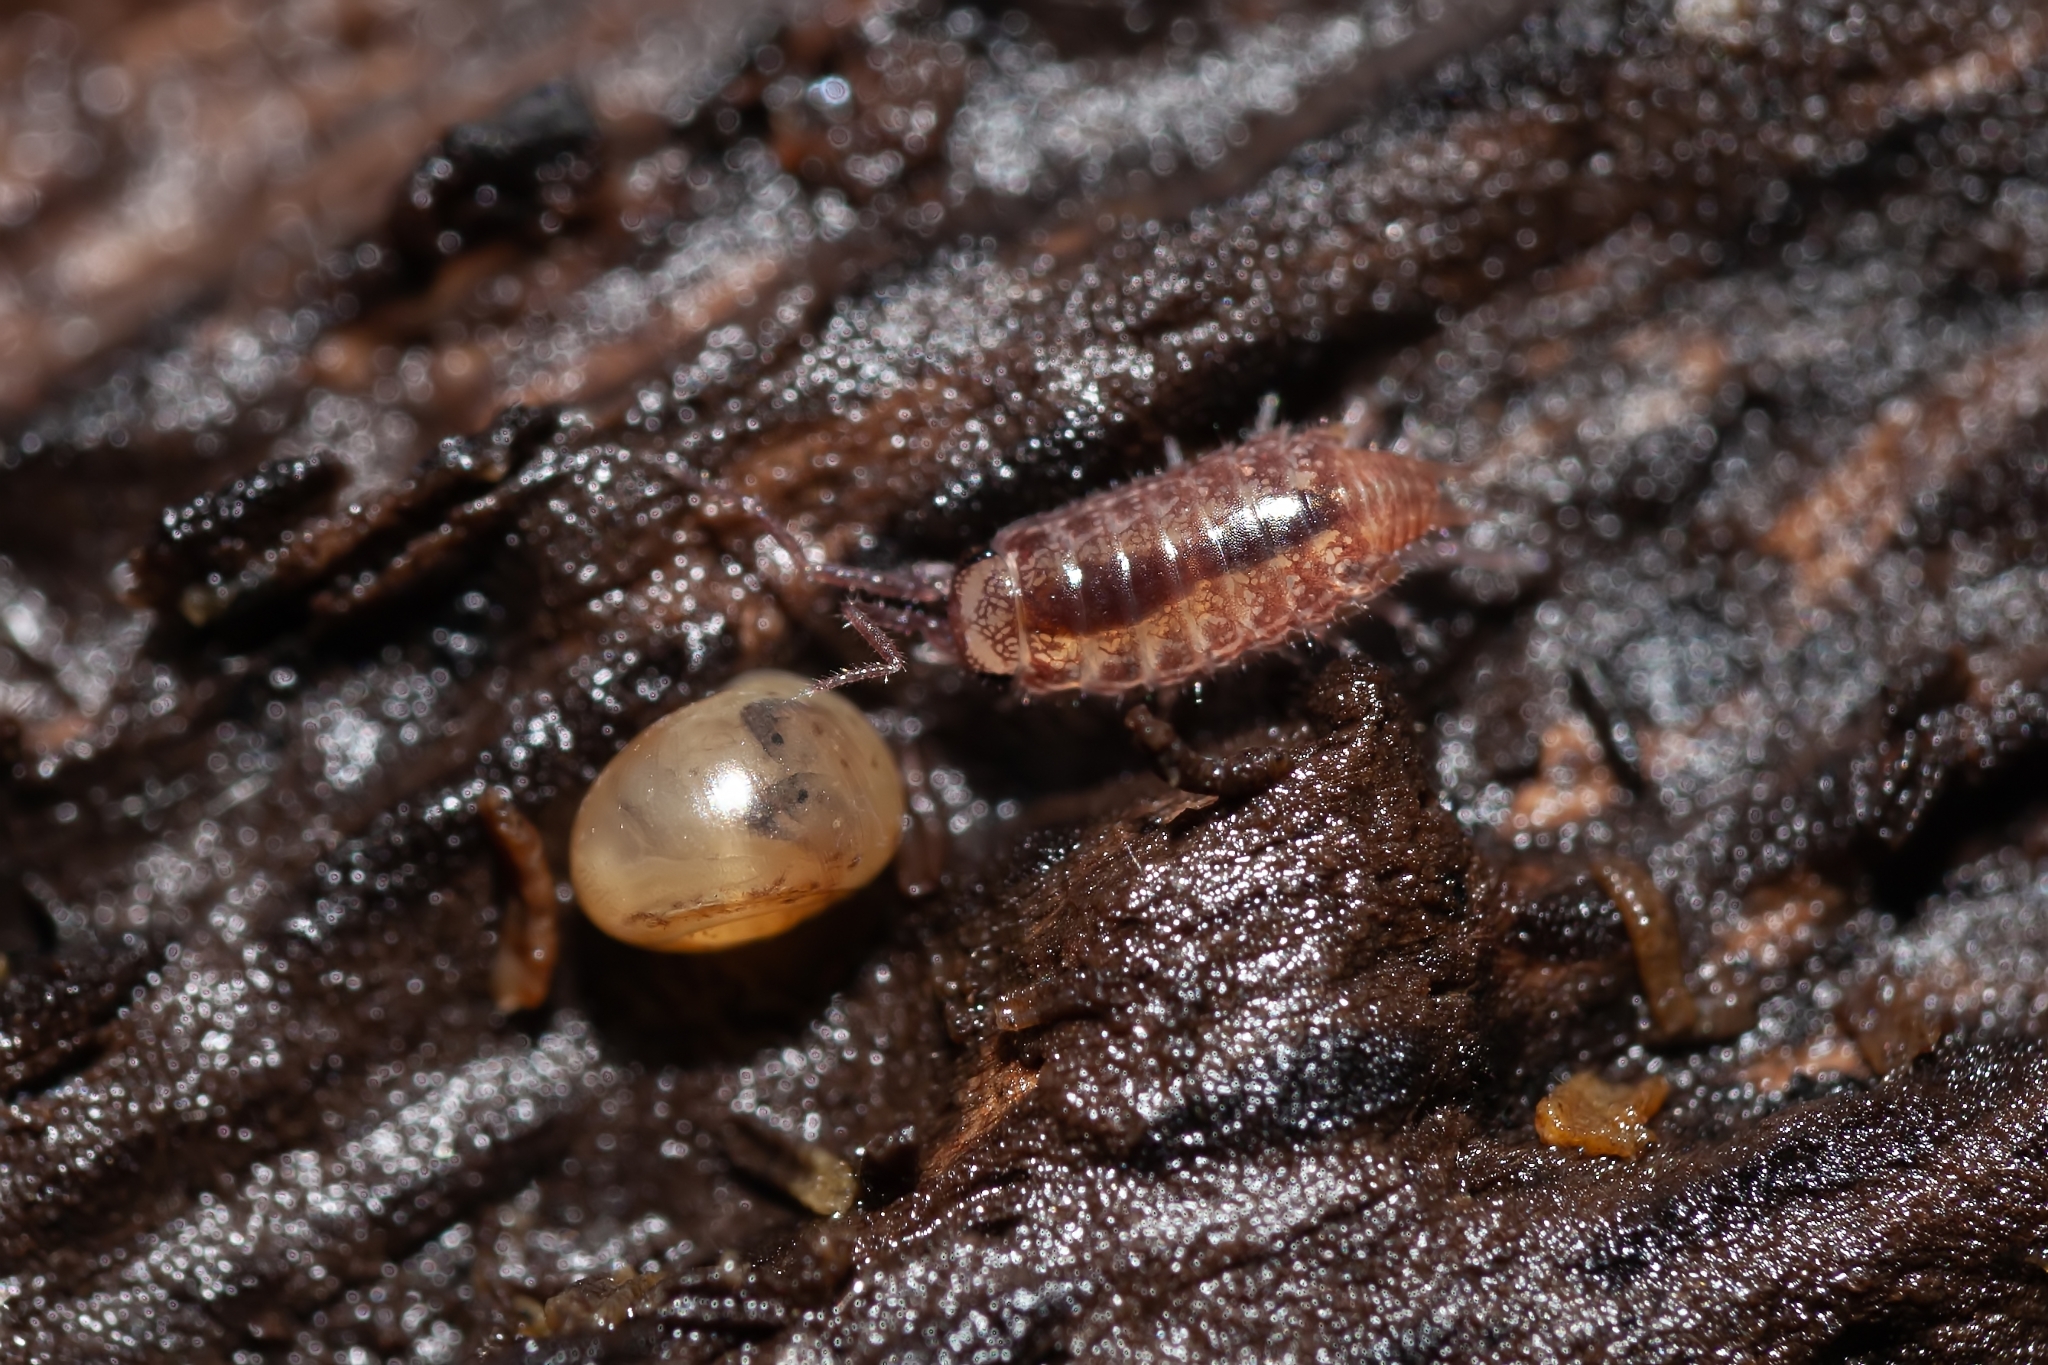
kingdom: Animalia
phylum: Arthropoda
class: Malacostraca
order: Isopoda
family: Philosciidae
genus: Atlantoscia
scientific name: Atlantoscia floridana
